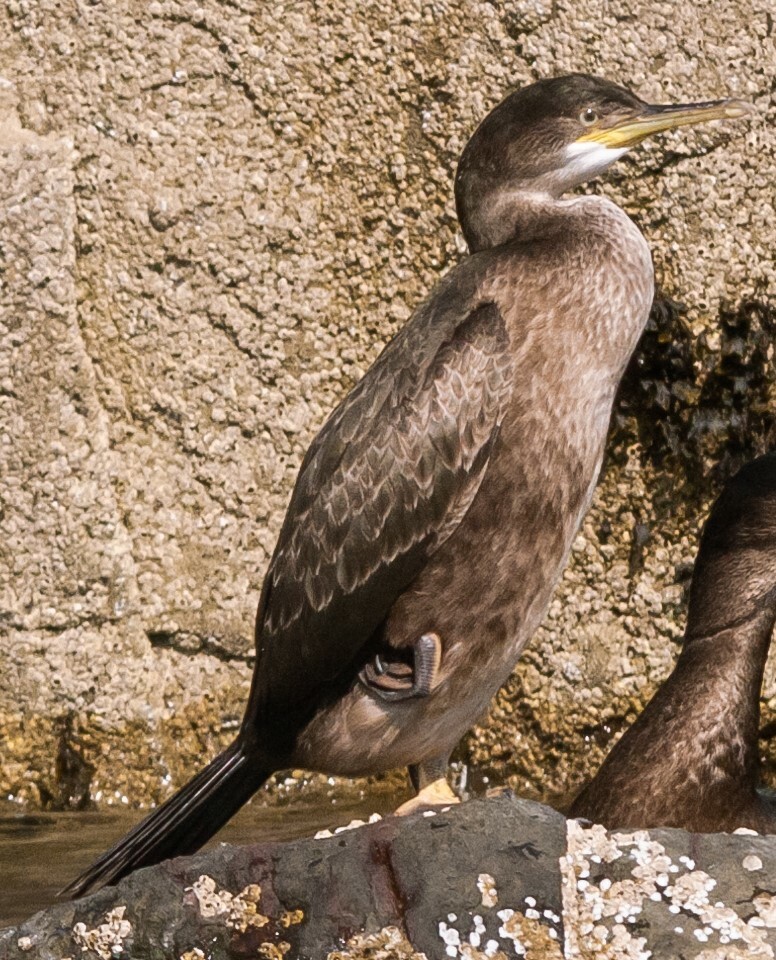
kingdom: Animalia
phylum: Chordata
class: Aves
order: Suliformes
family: Phalacrocoracidae
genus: Phalacrocorax
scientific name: Phalacrocorax aristotelis
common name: European shag
